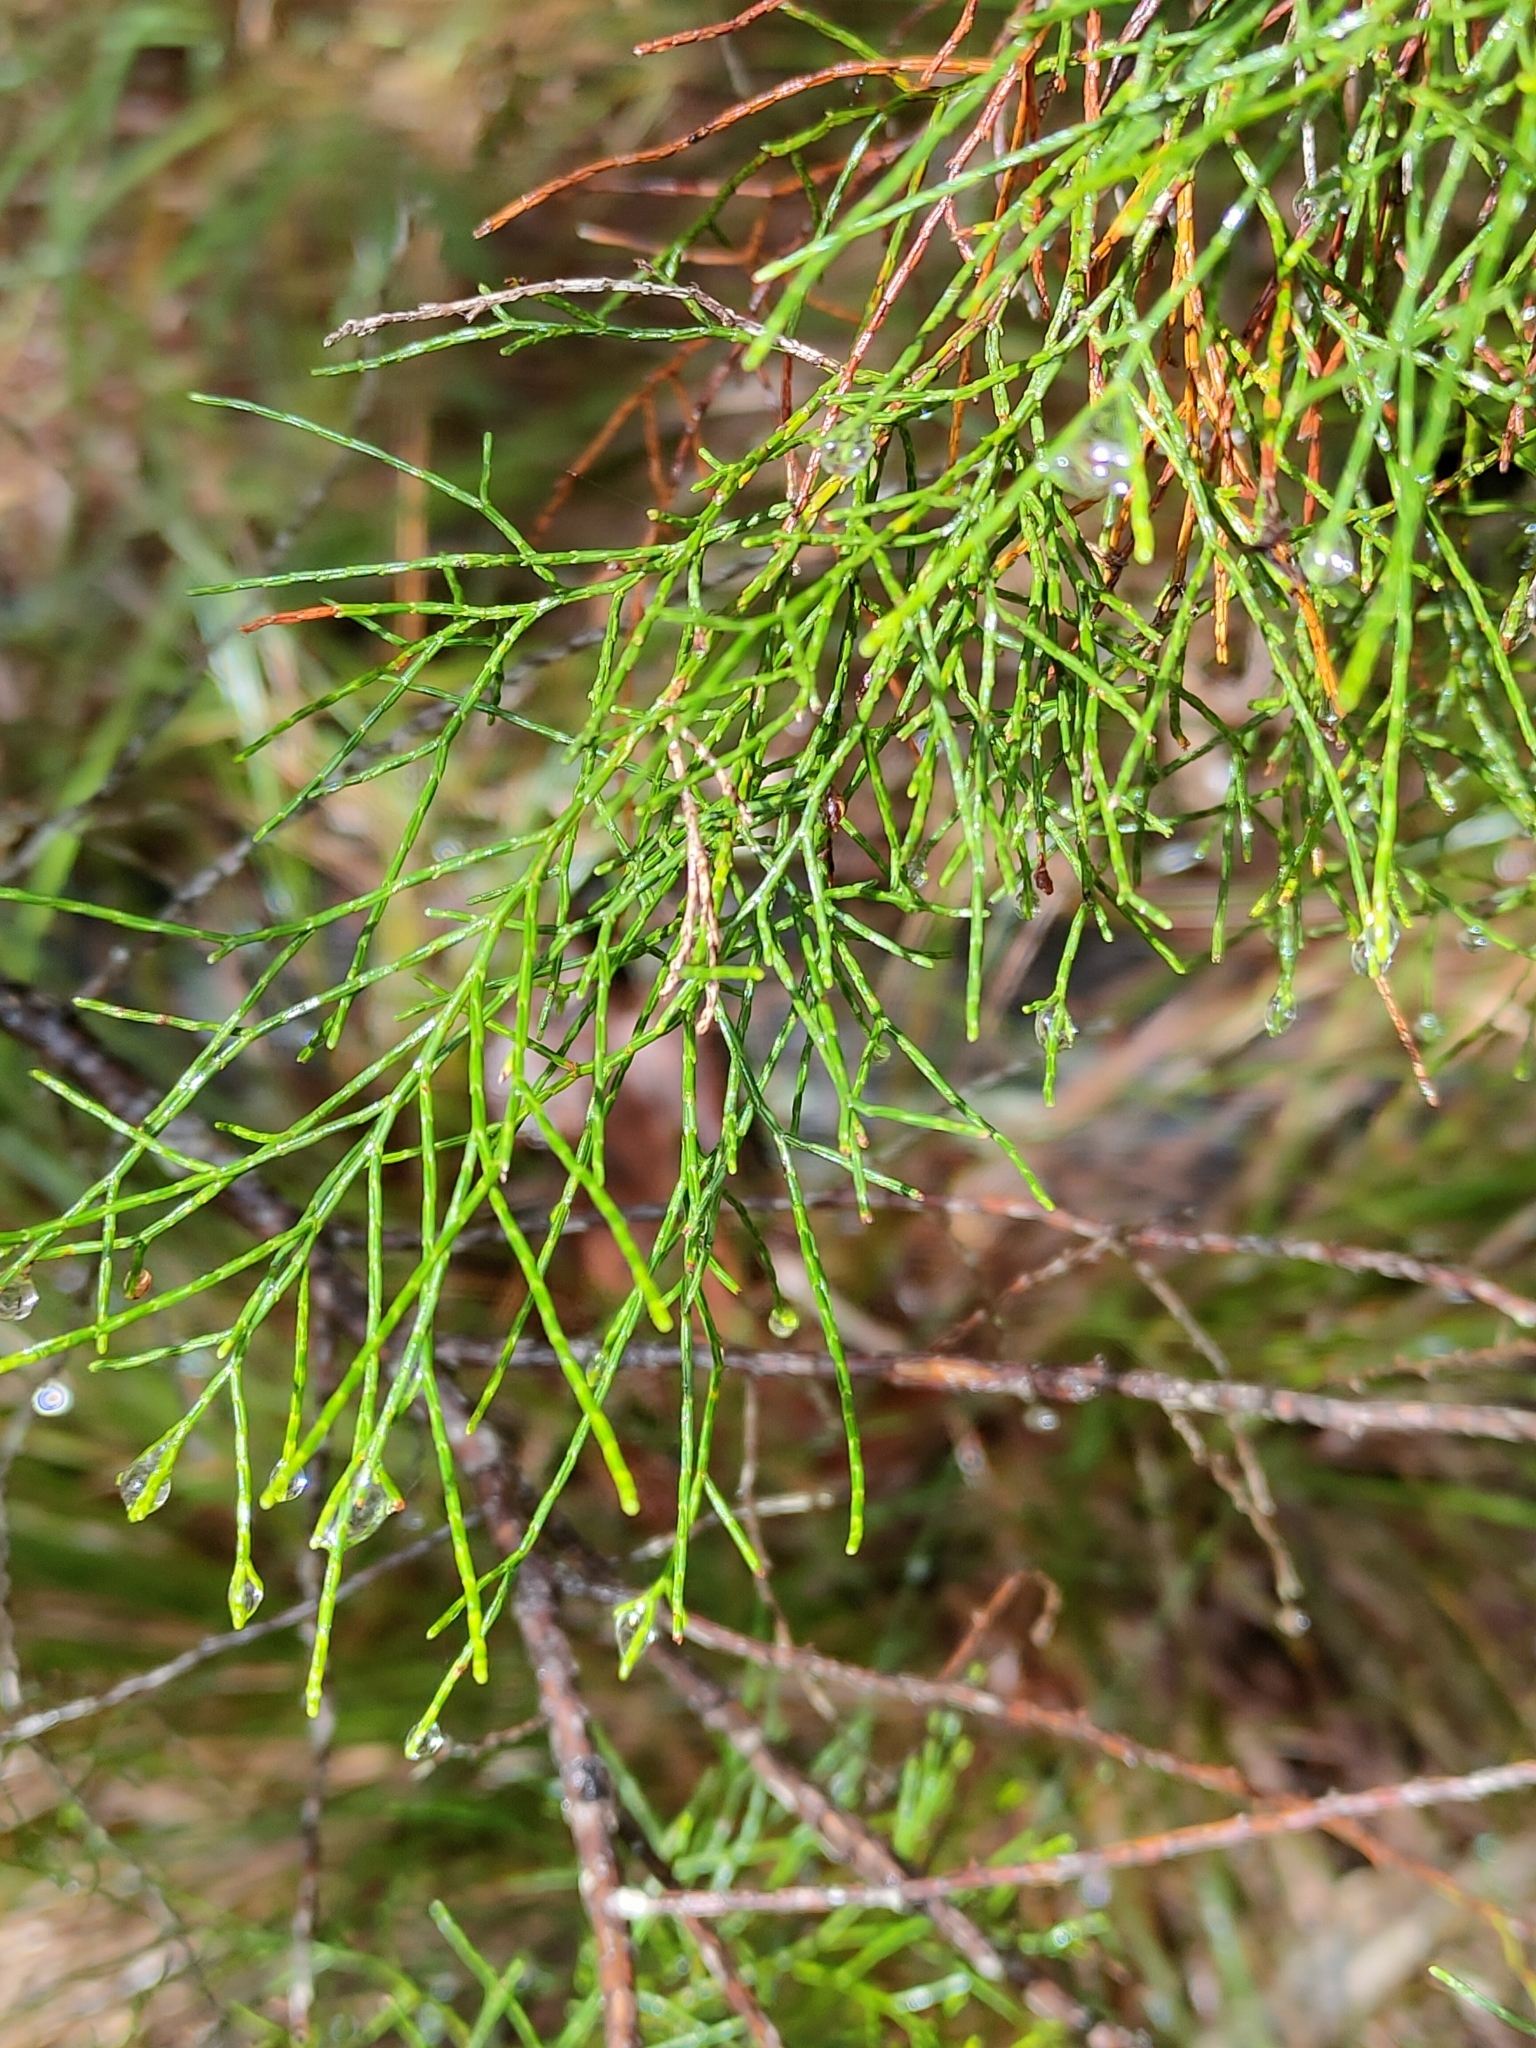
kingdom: Plantae
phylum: Tracheophyta
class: Pinopsida
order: Pinales
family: Cupressaceae
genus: Callitris
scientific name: Callitris columellaris
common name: White cypress-pine
